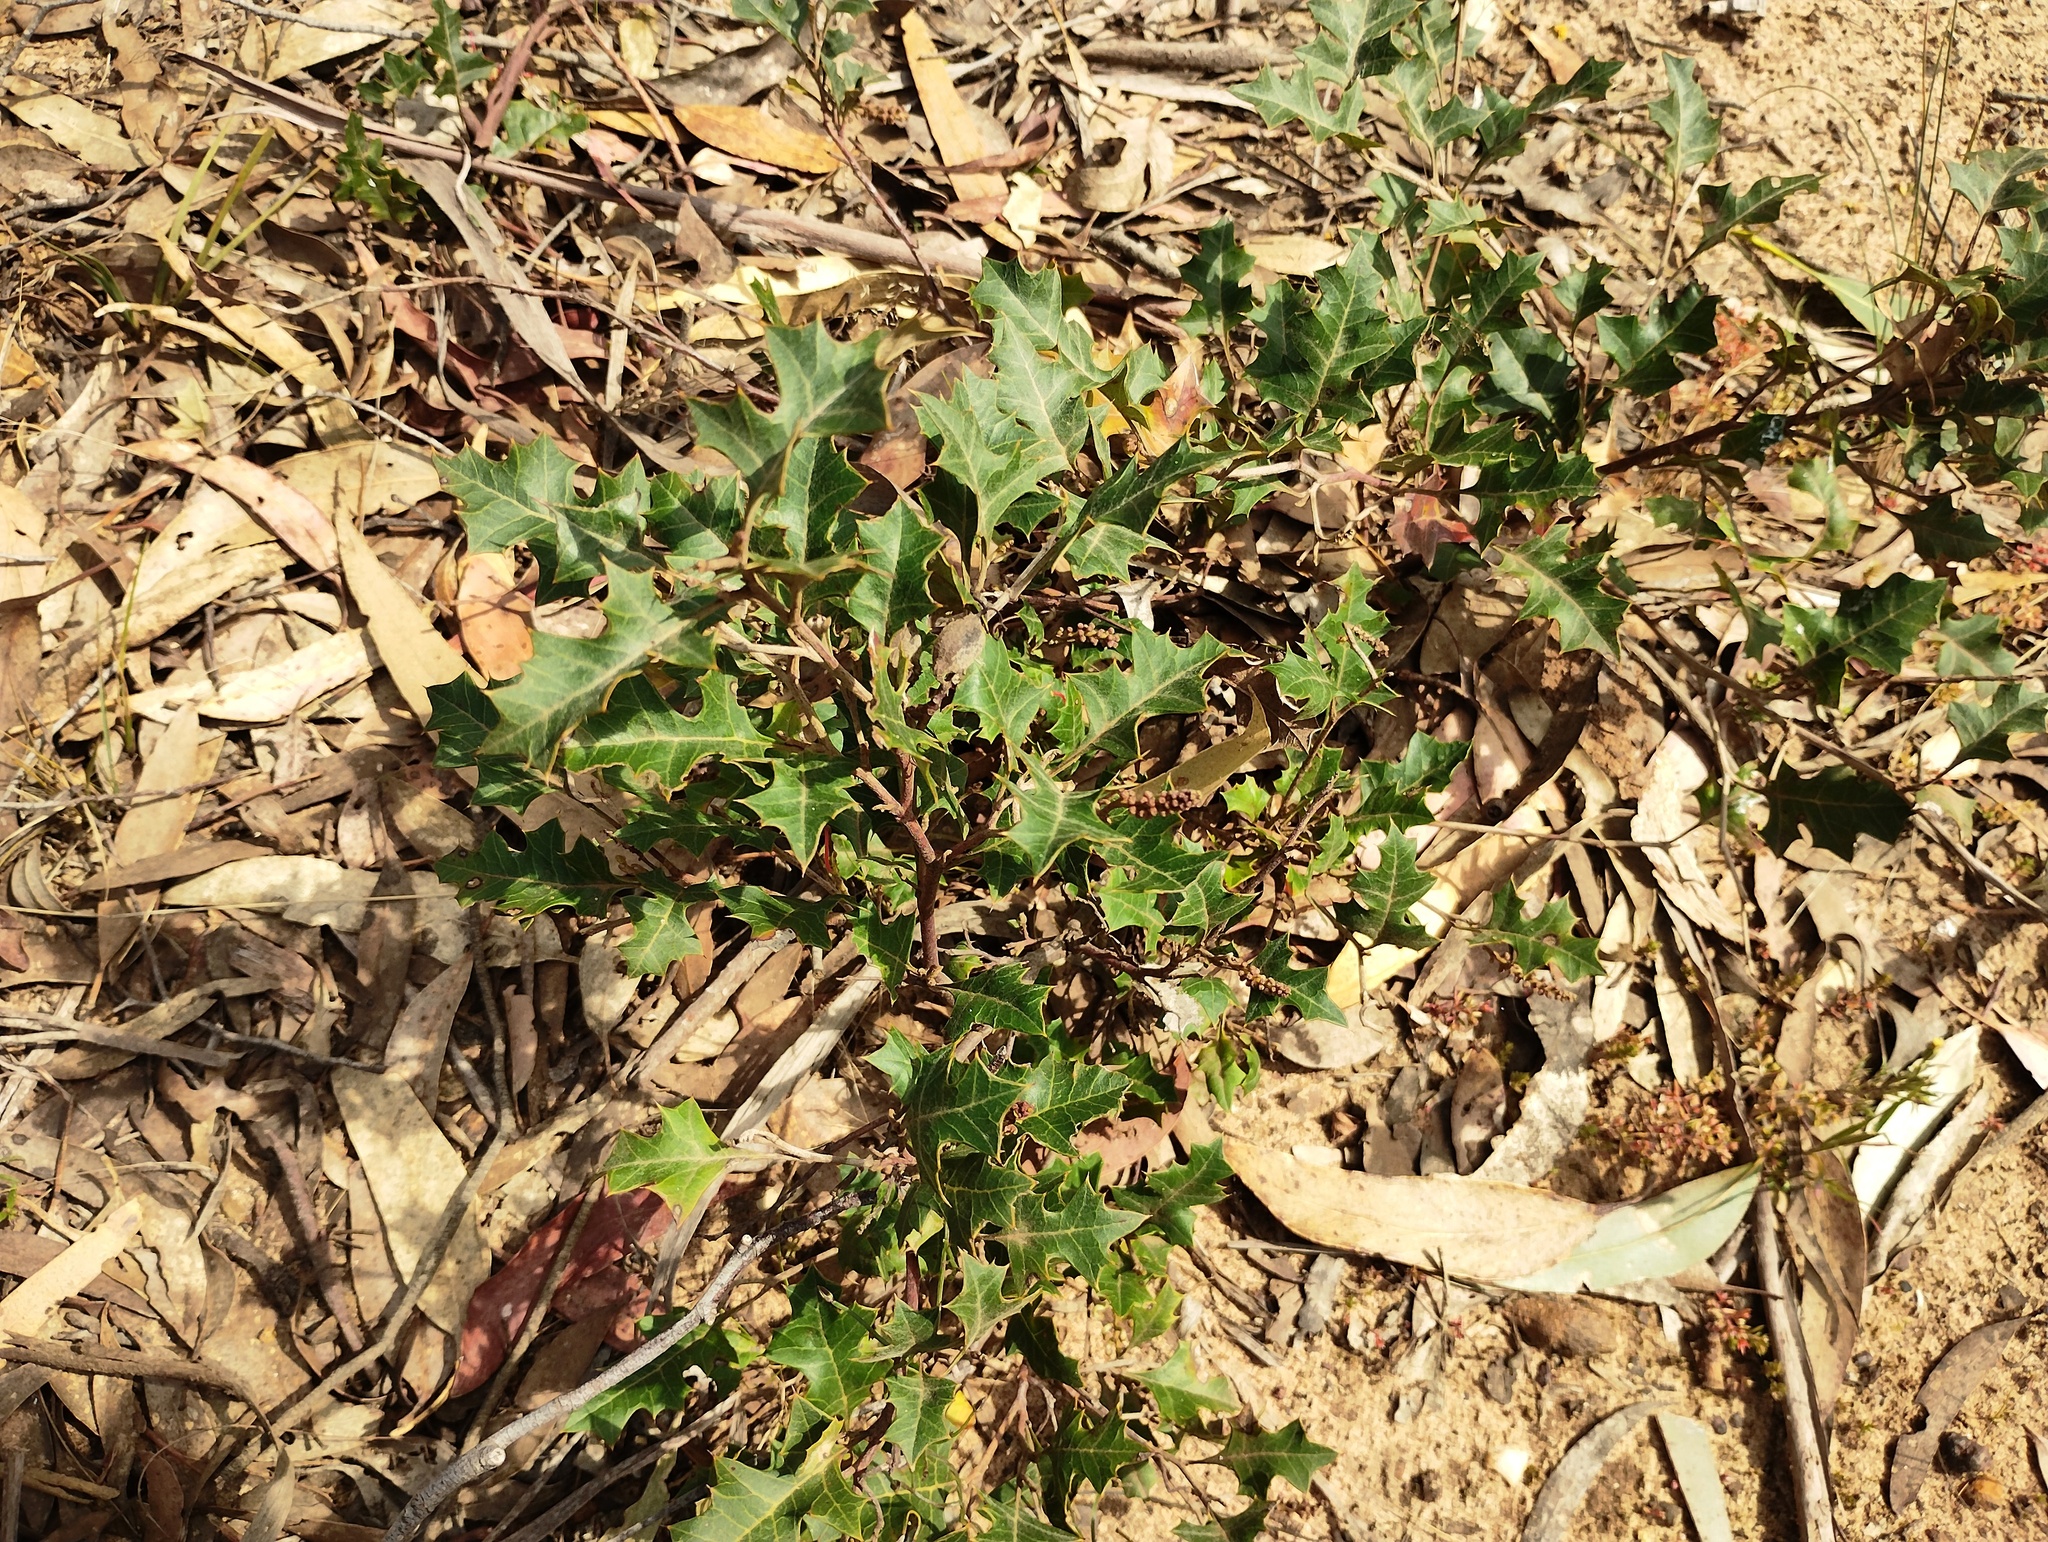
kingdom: Plantae
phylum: Tracheophyta
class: Magnoliopsida
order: Proteales
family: Proteaceae
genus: Grevillea
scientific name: Grevillea steiglitziana
